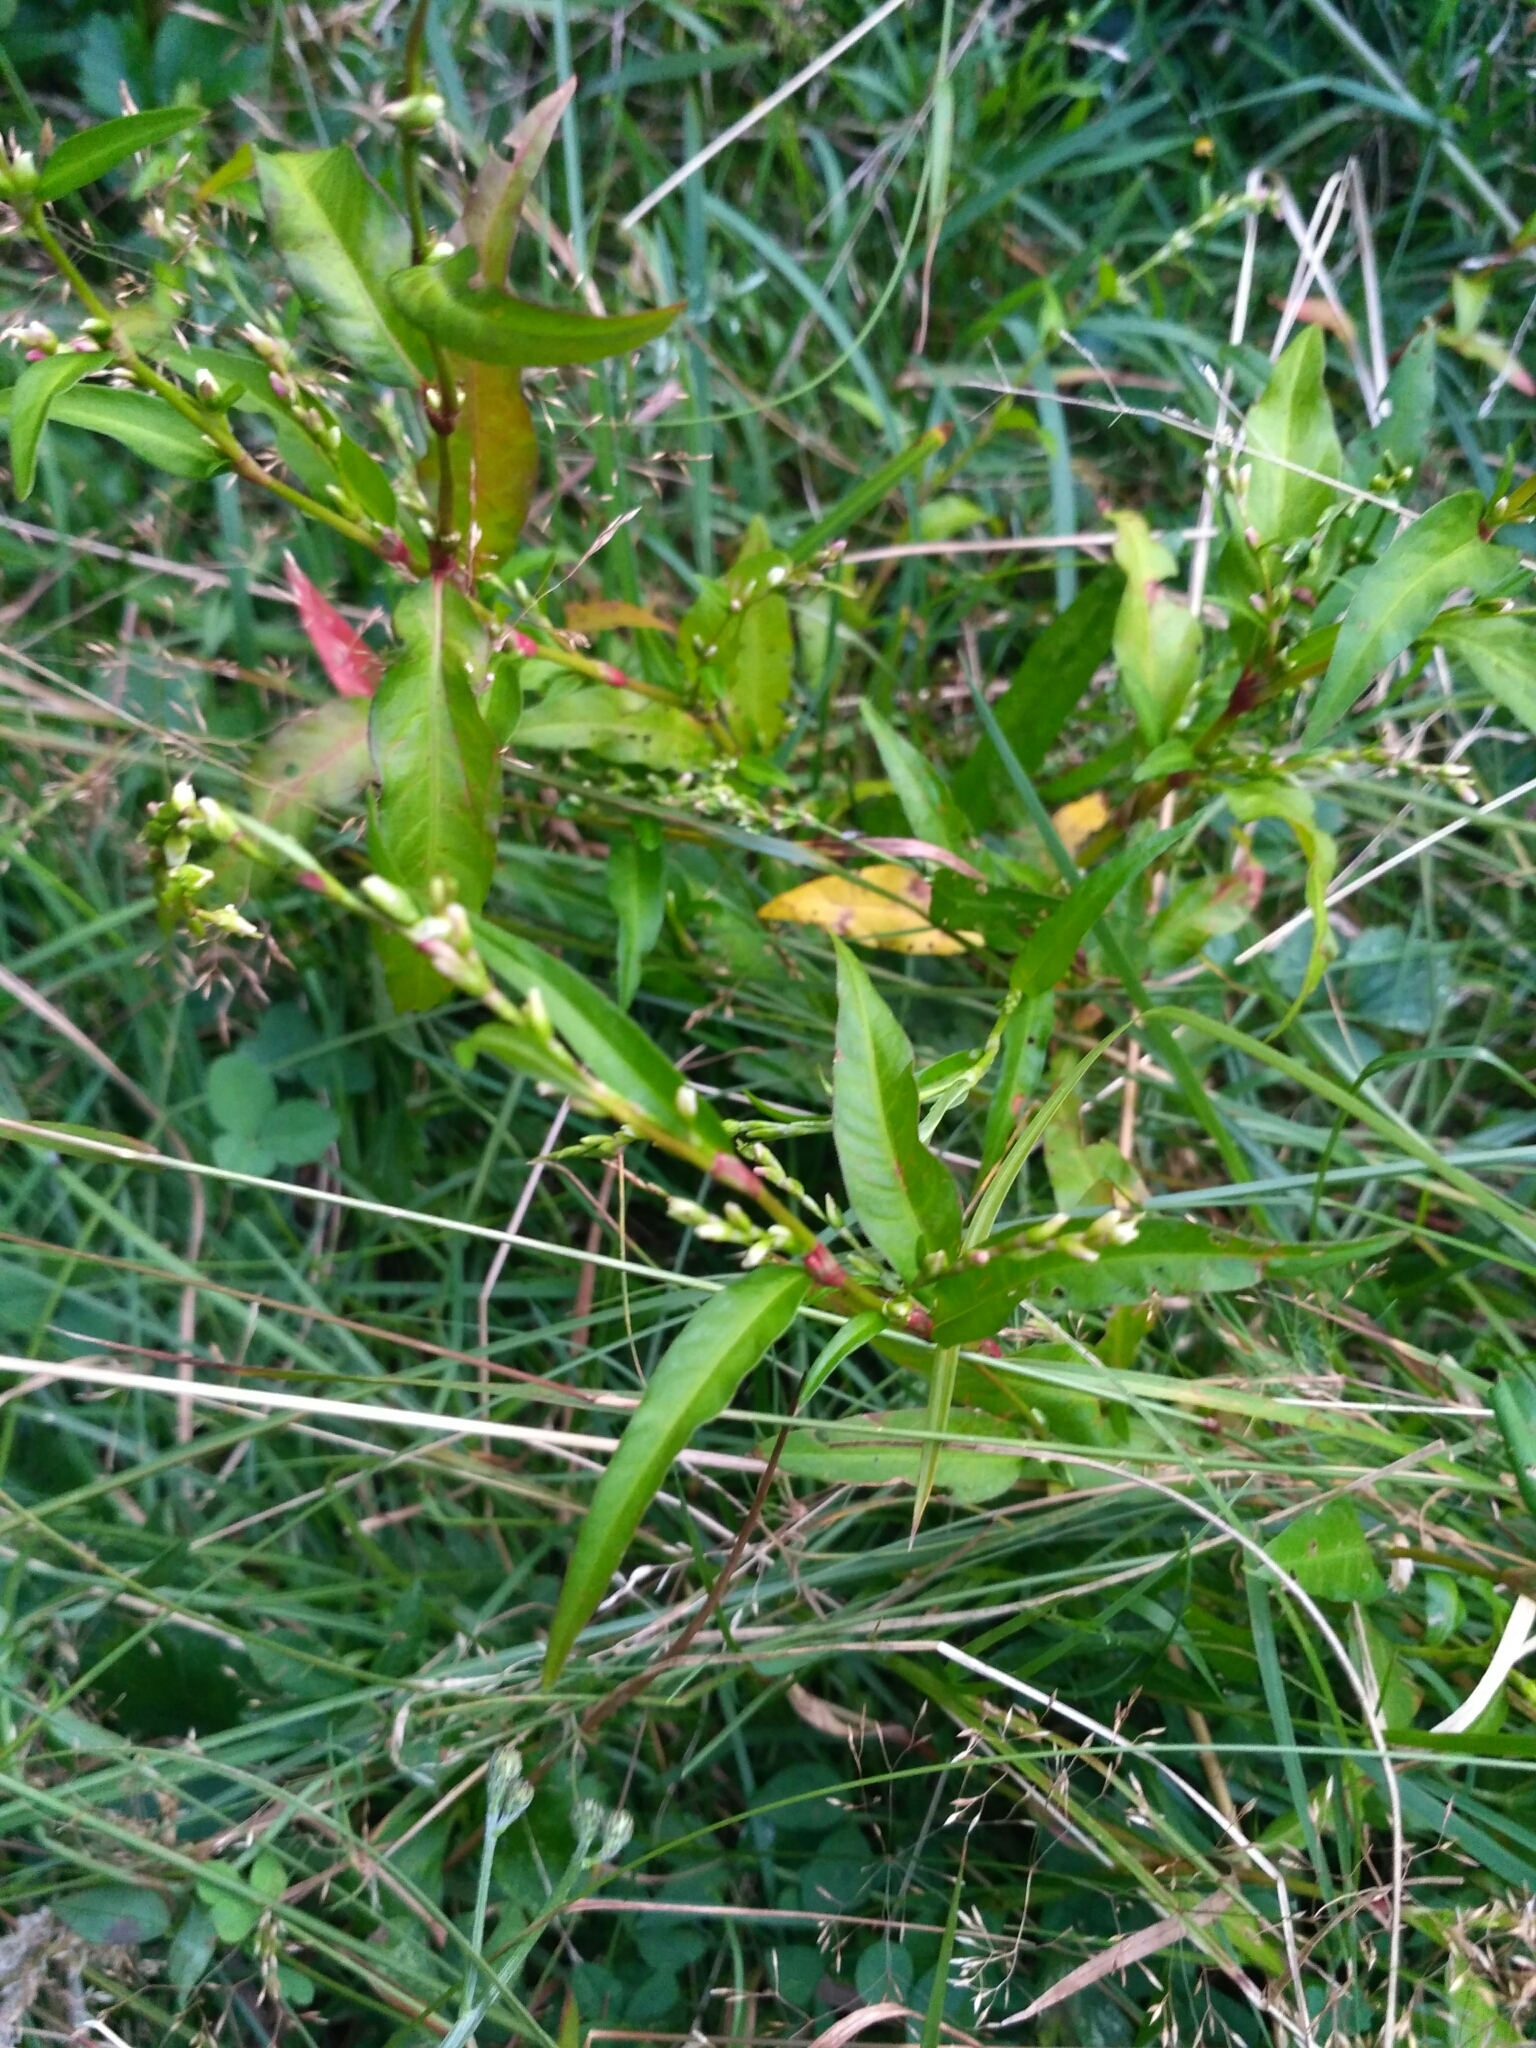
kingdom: Plantae
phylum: Tracheophyta
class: Magnoliopsida
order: Caryophyllales
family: Polygonaceae
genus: Persicaria
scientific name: Persicaria hydropiper
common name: Water-pepper
